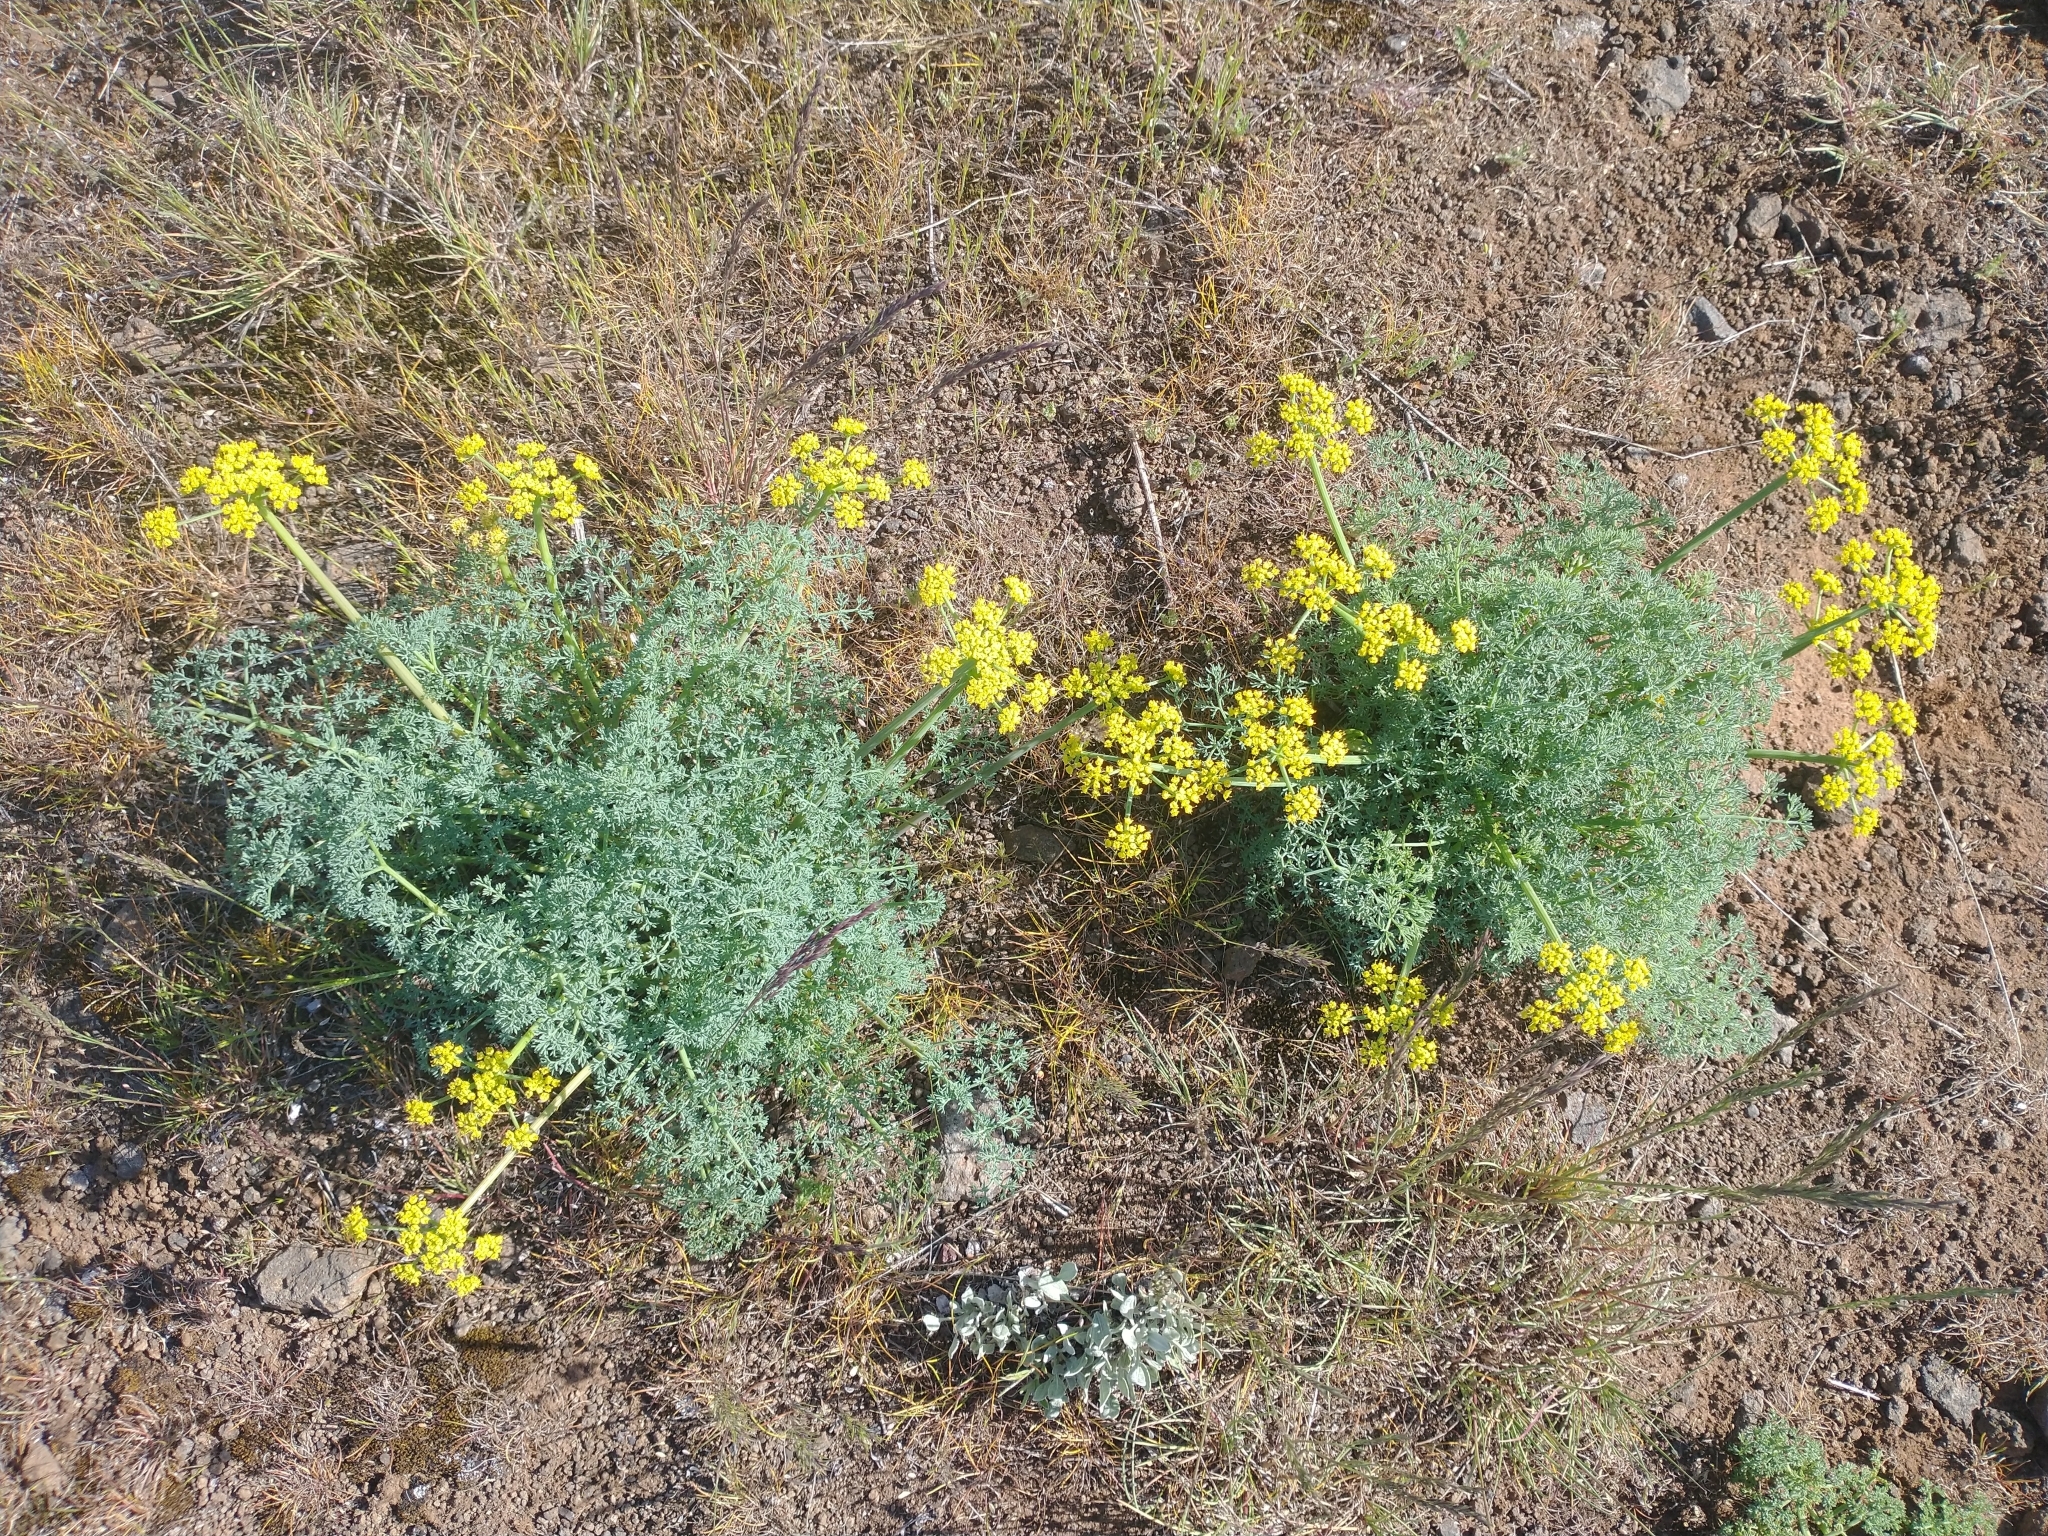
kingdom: Plantae
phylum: Tracheophyta
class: Magnoliopsida
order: Apiales
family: Apiaceae
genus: Lomatium
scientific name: Lomatium papilioniferum
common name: Butterfly lomatium
